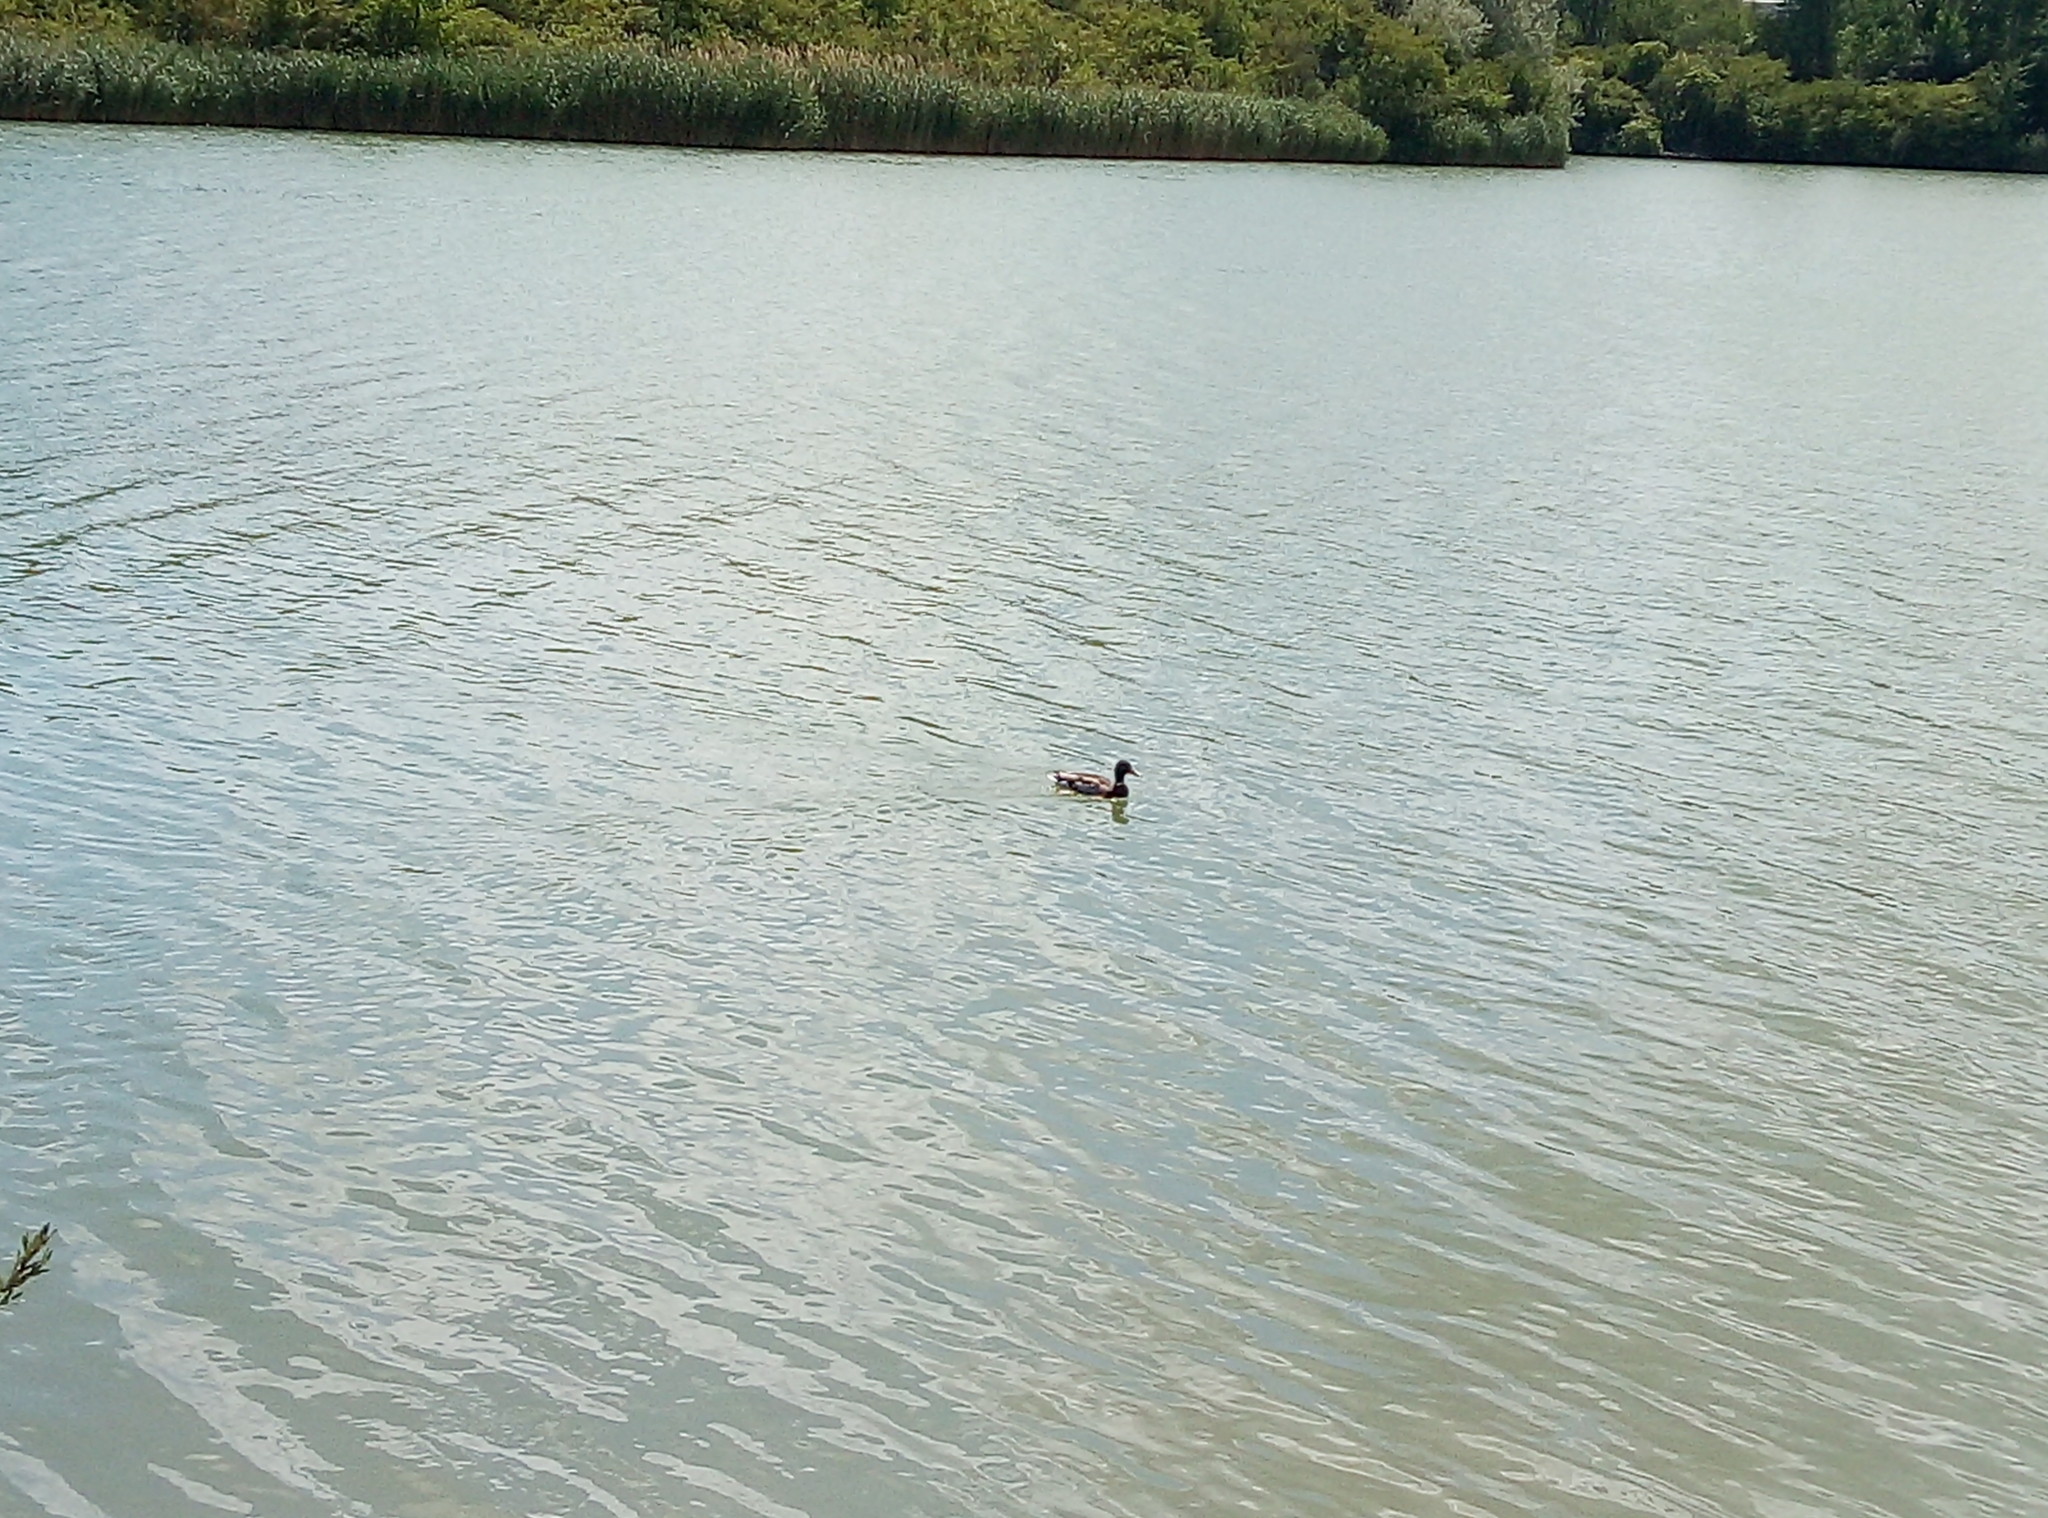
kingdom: Animalia
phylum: Chordata
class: Aves
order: Anseriformes
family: Anatidae
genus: Anas
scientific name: Anas platyrhynchos
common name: Mallard
